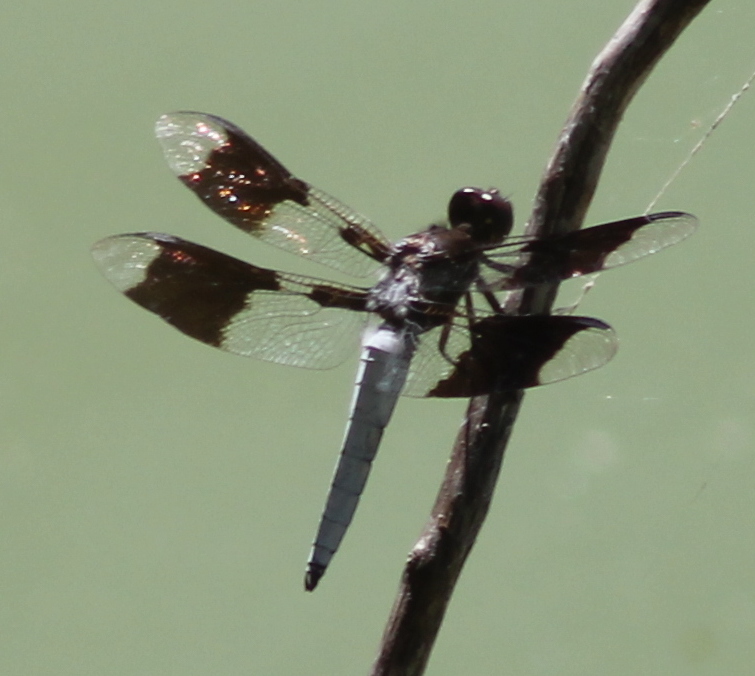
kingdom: Animalia
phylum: Arthropoda
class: Insecta
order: Odonata
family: Libellulidae
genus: Plathemis
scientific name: Plathemis lydia
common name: Common whitetail
